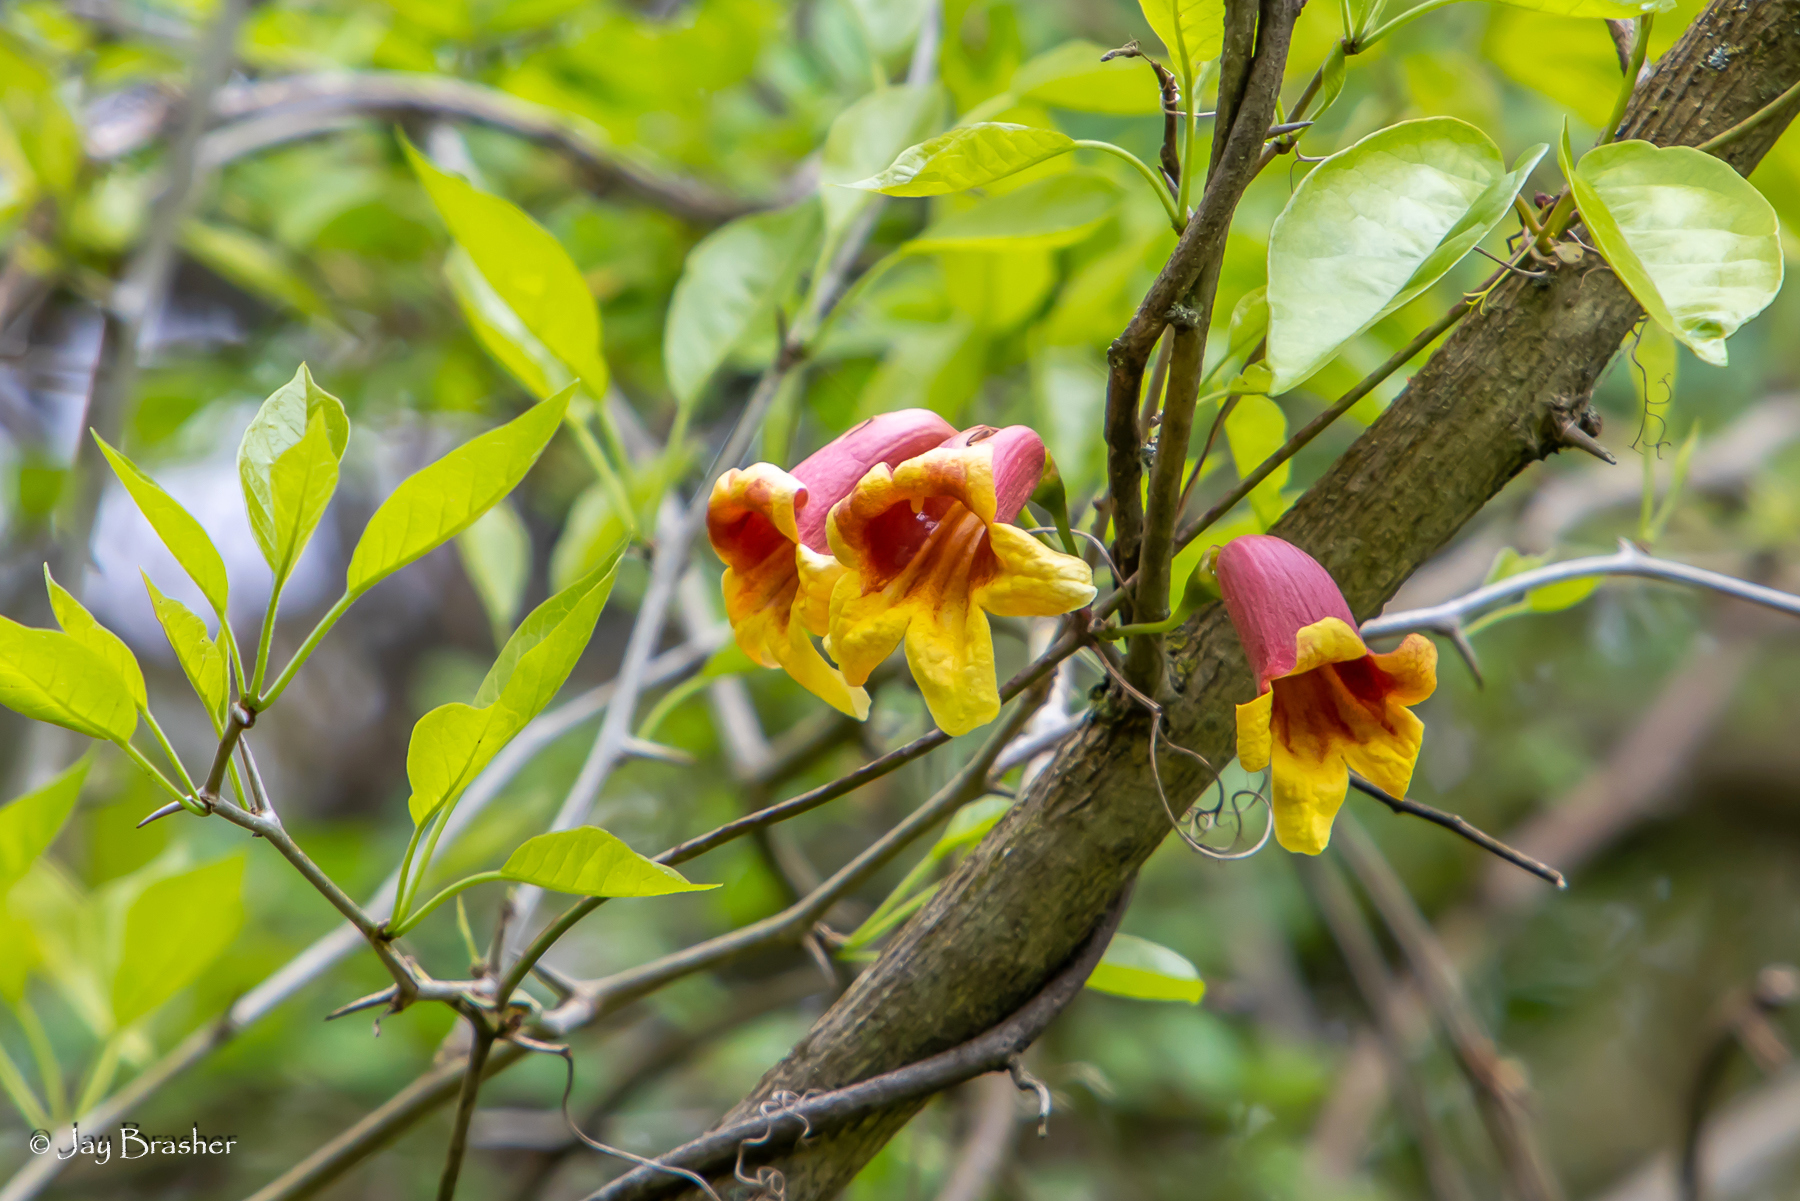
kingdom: Plantae
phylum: Tracheophyta
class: Magnoliopsida
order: Lamiales
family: Bignoniaceae
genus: Bignonia
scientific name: Bignonia capreolata
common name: Crossvine
